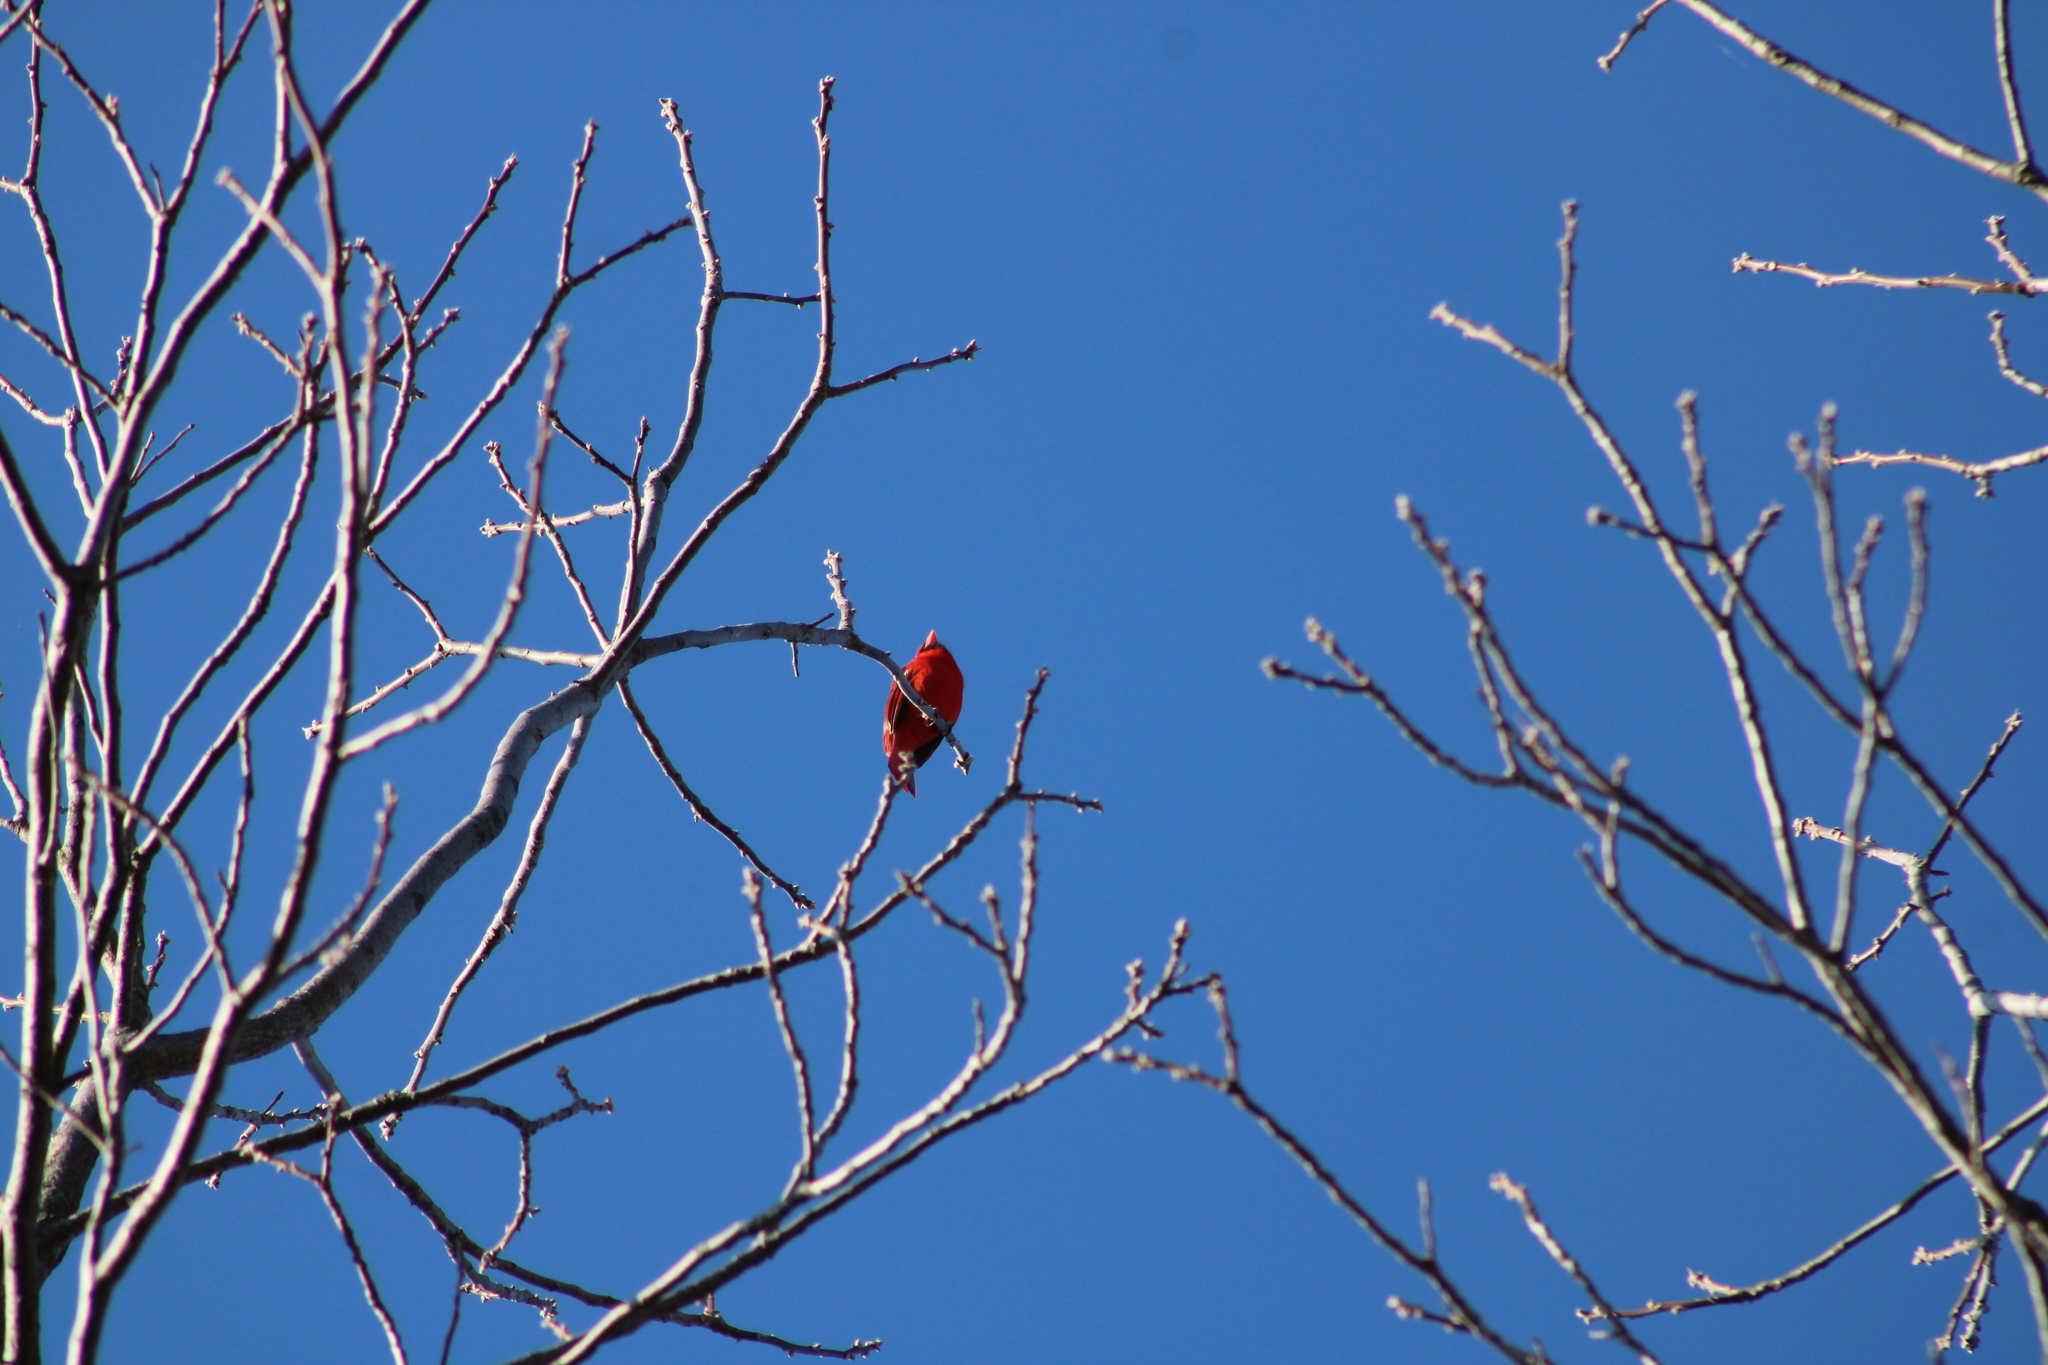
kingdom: Animalia
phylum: Chordata
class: Aves
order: Passeriformes
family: Cardinalidae
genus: Cardinalis
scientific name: Cardinalis cardinalis
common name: Northern cardinal
